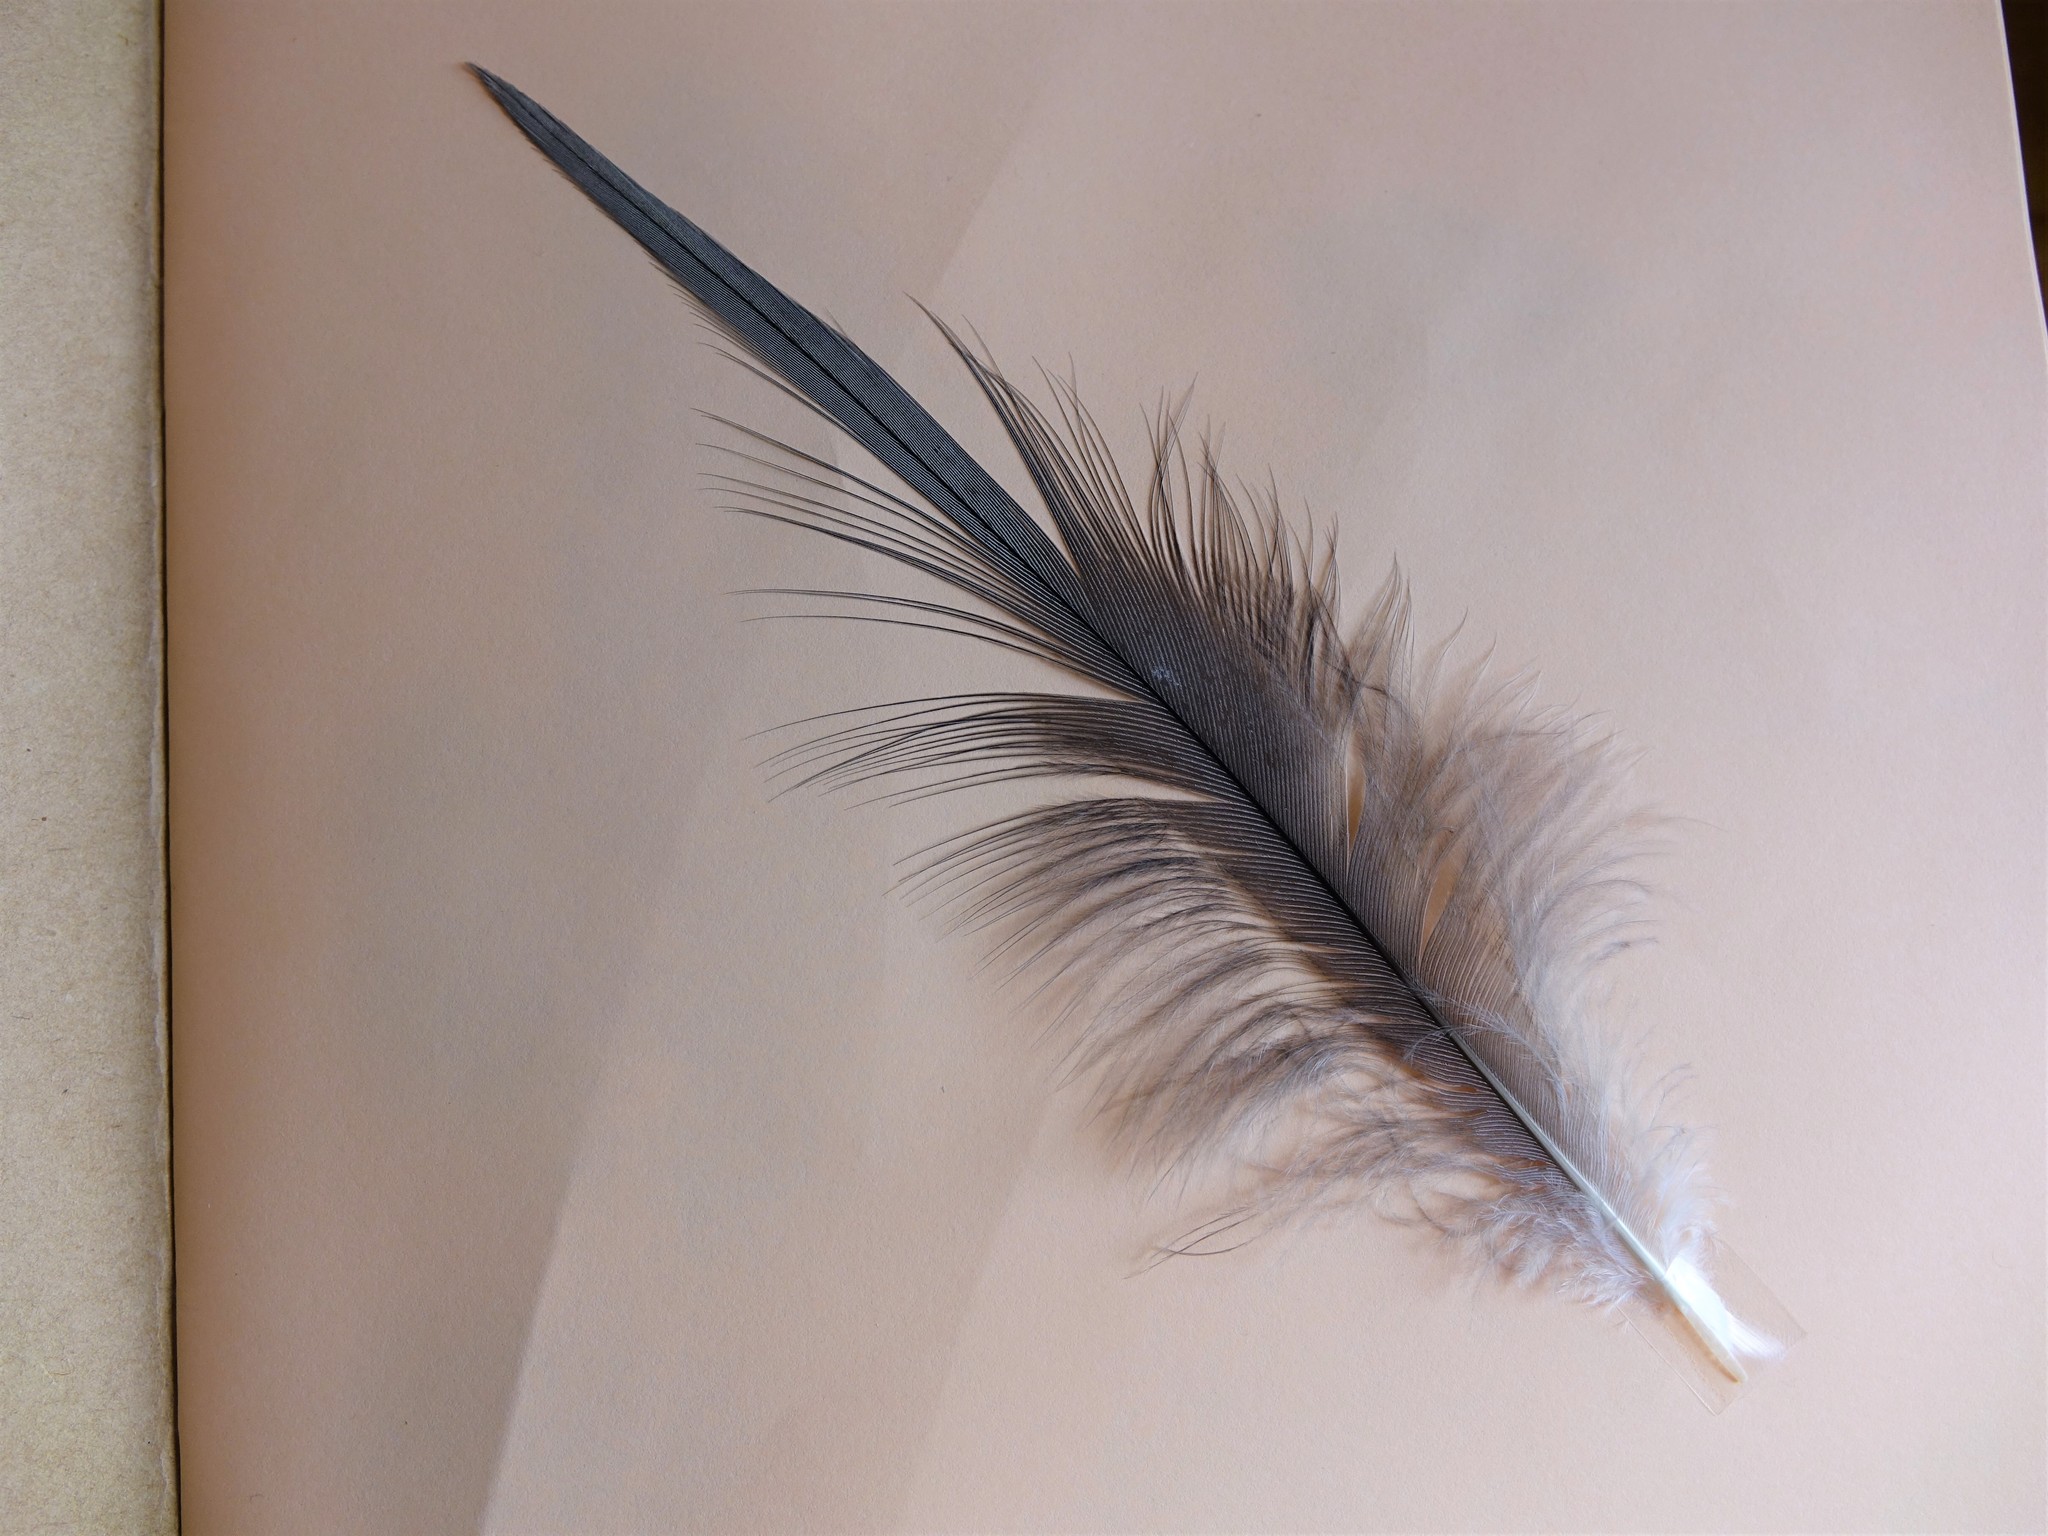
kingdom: Animalia
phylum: Chordata
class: Aves
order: Pelecaniformes
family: Ardeidae
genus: Egretta
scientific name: Egretta novaehollandiae
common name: White-faced heron
